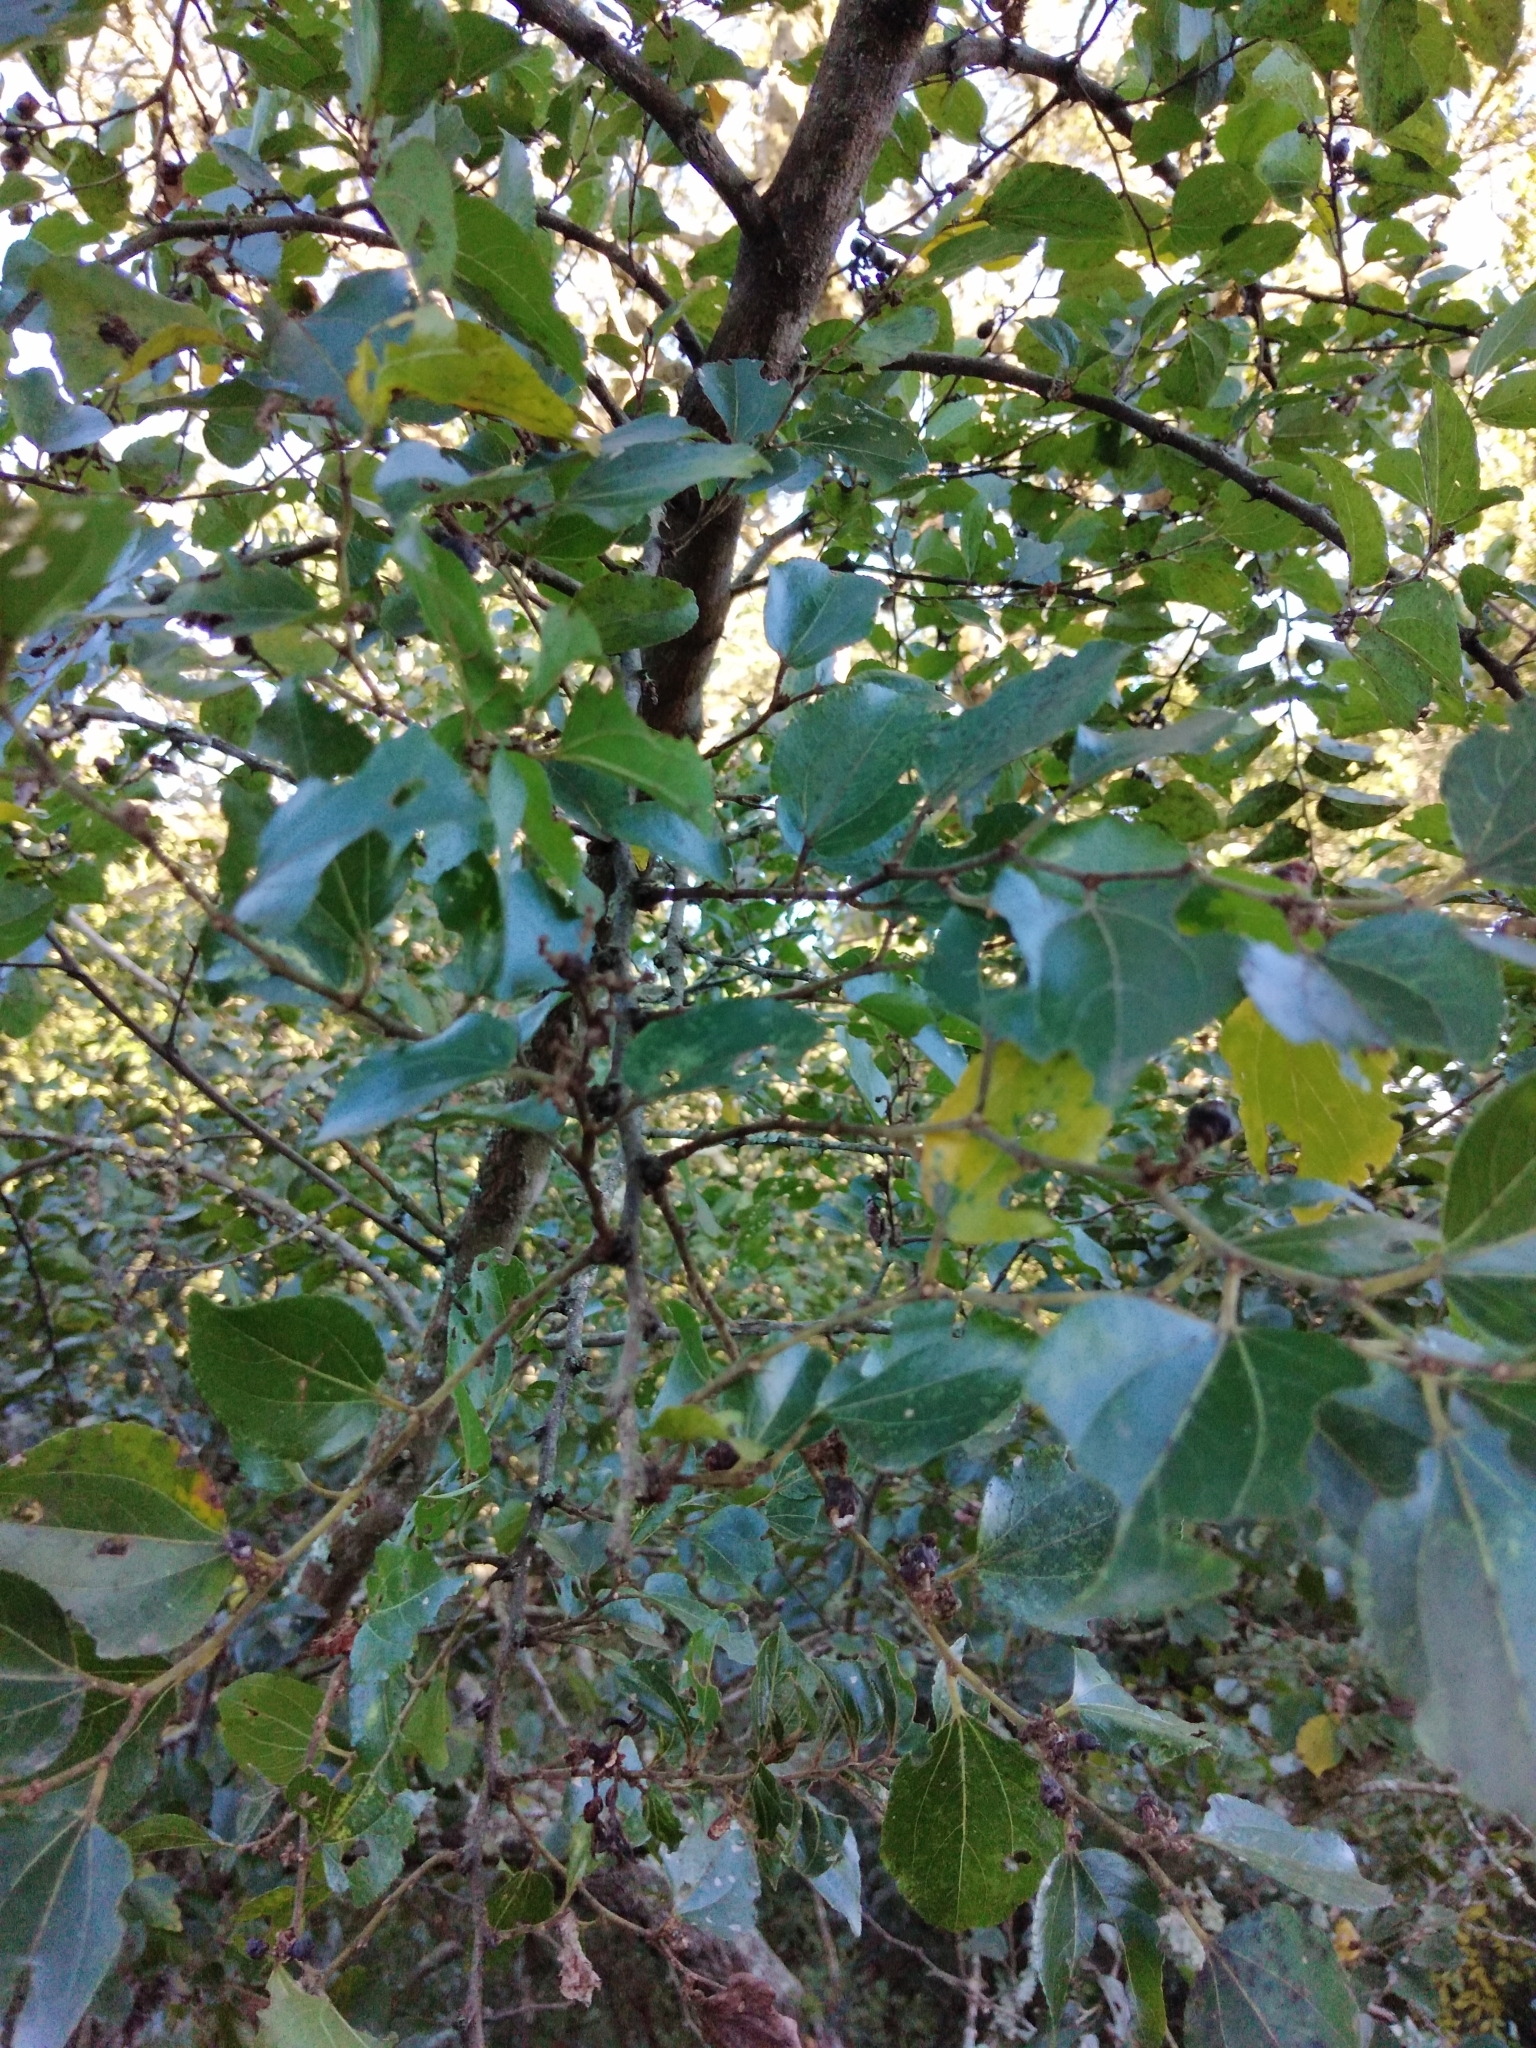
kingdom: Plantae
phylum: Tracheophyta
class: Magnoliopsida
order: Rosales
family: Rhamnaceae
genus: Ziziphus
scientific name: Ziziphus mucronata
